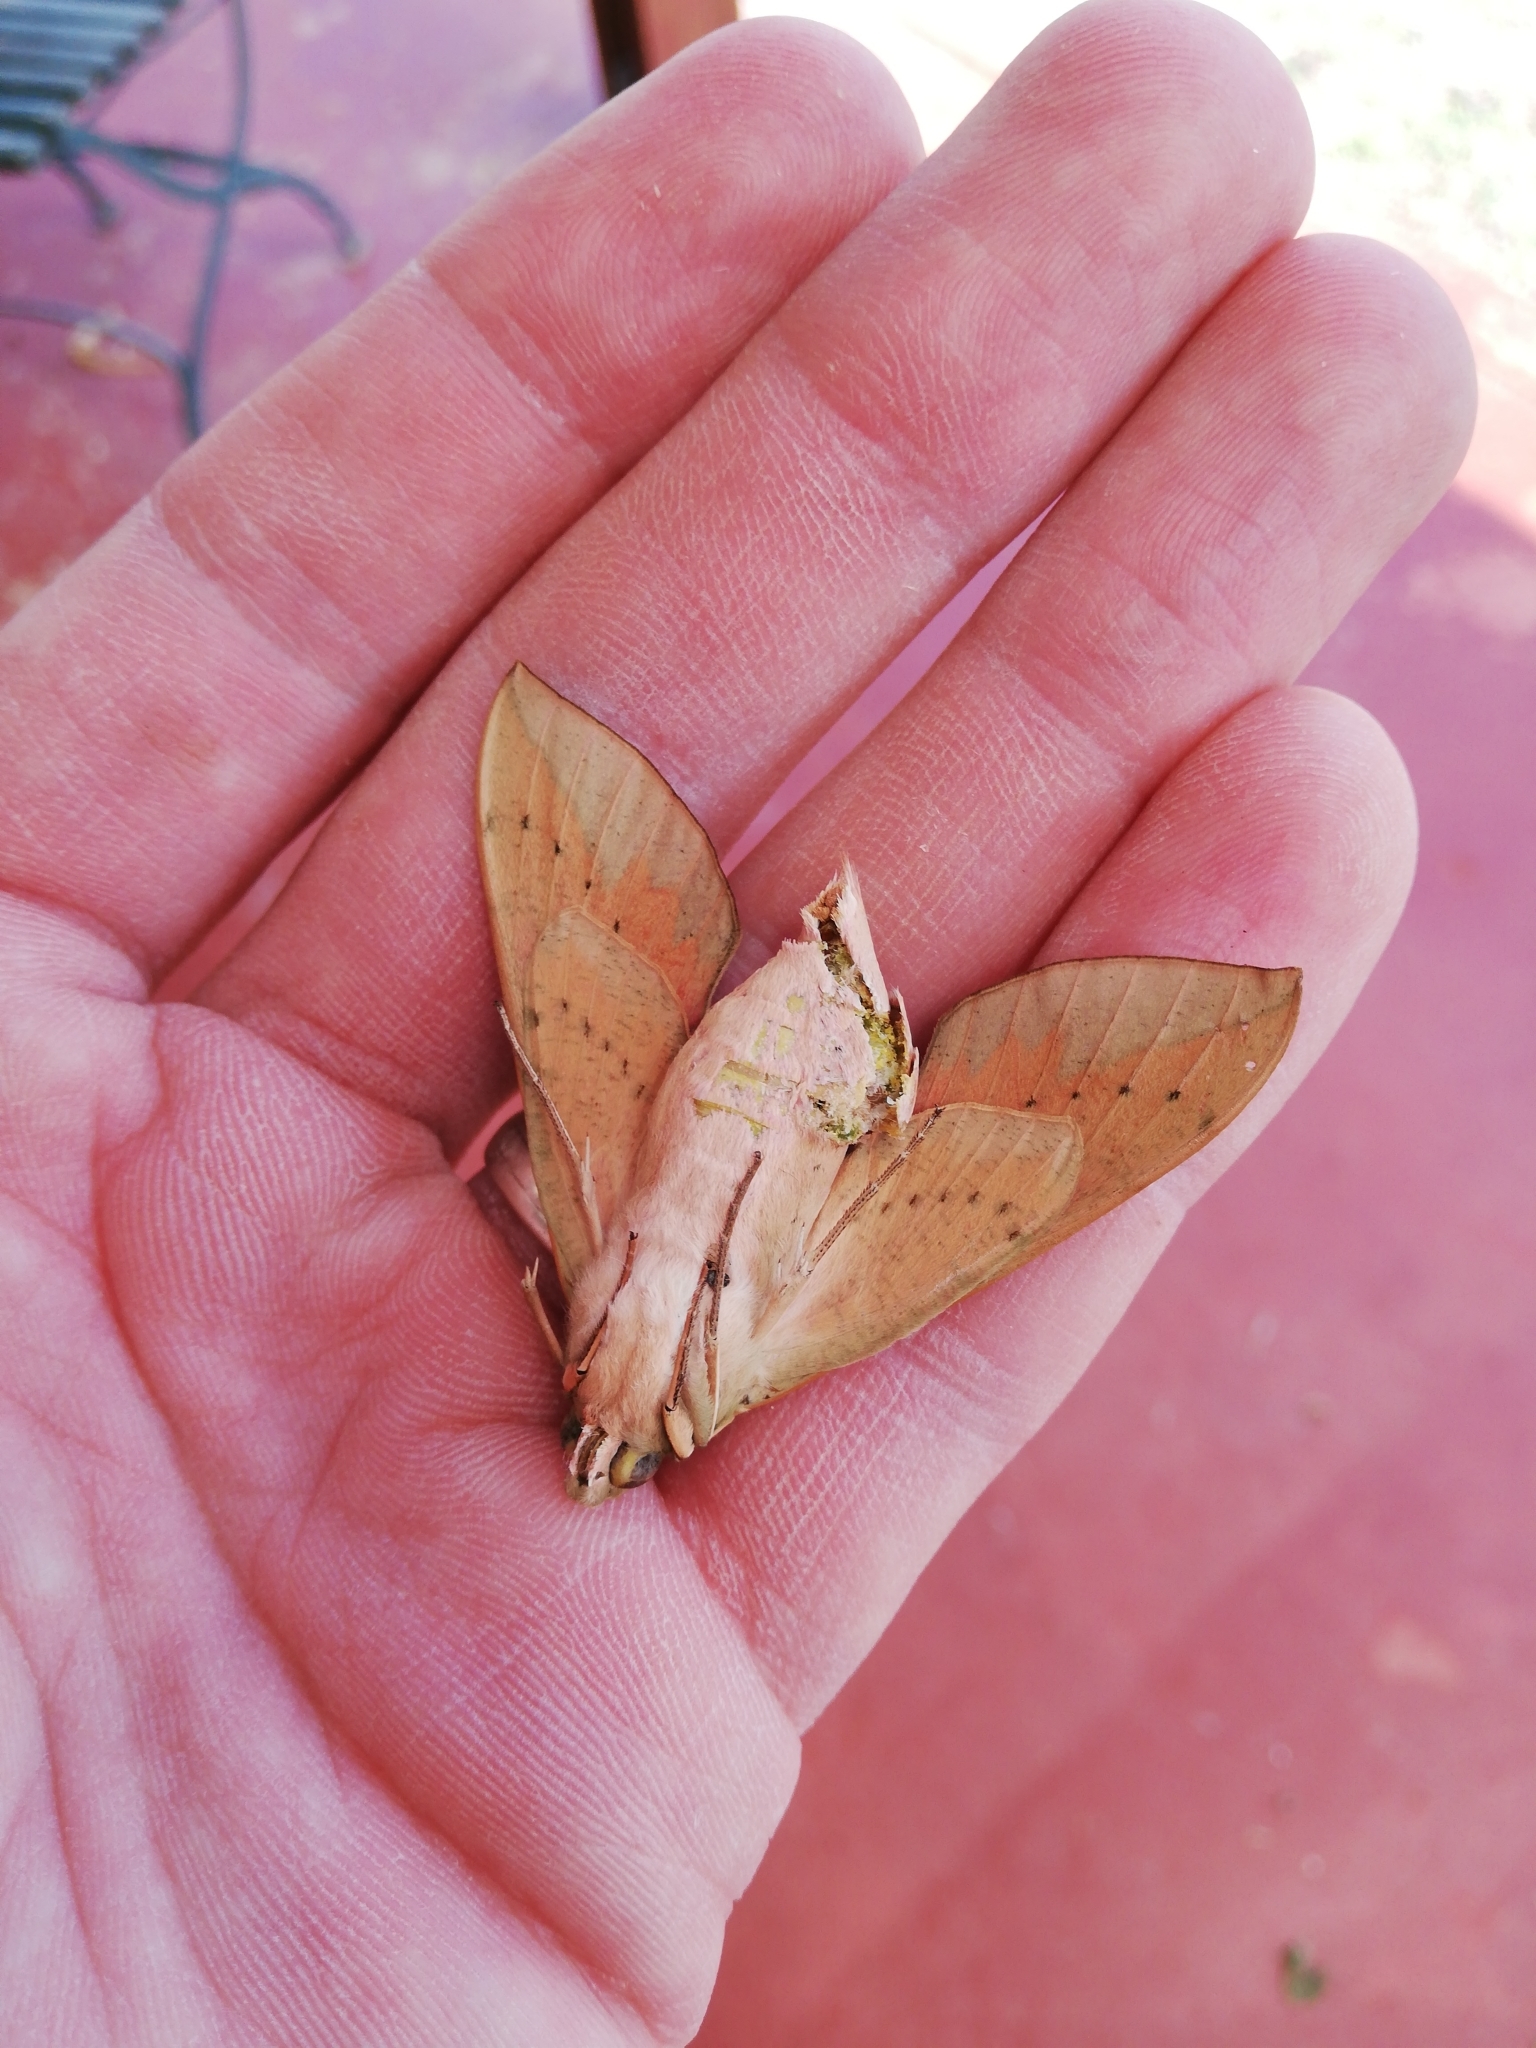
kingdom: Animalia
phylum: Arthropoda
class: Insecta
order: Lepidoptera
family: Sphingidae
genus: Theretra
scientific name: Theretra capensis
